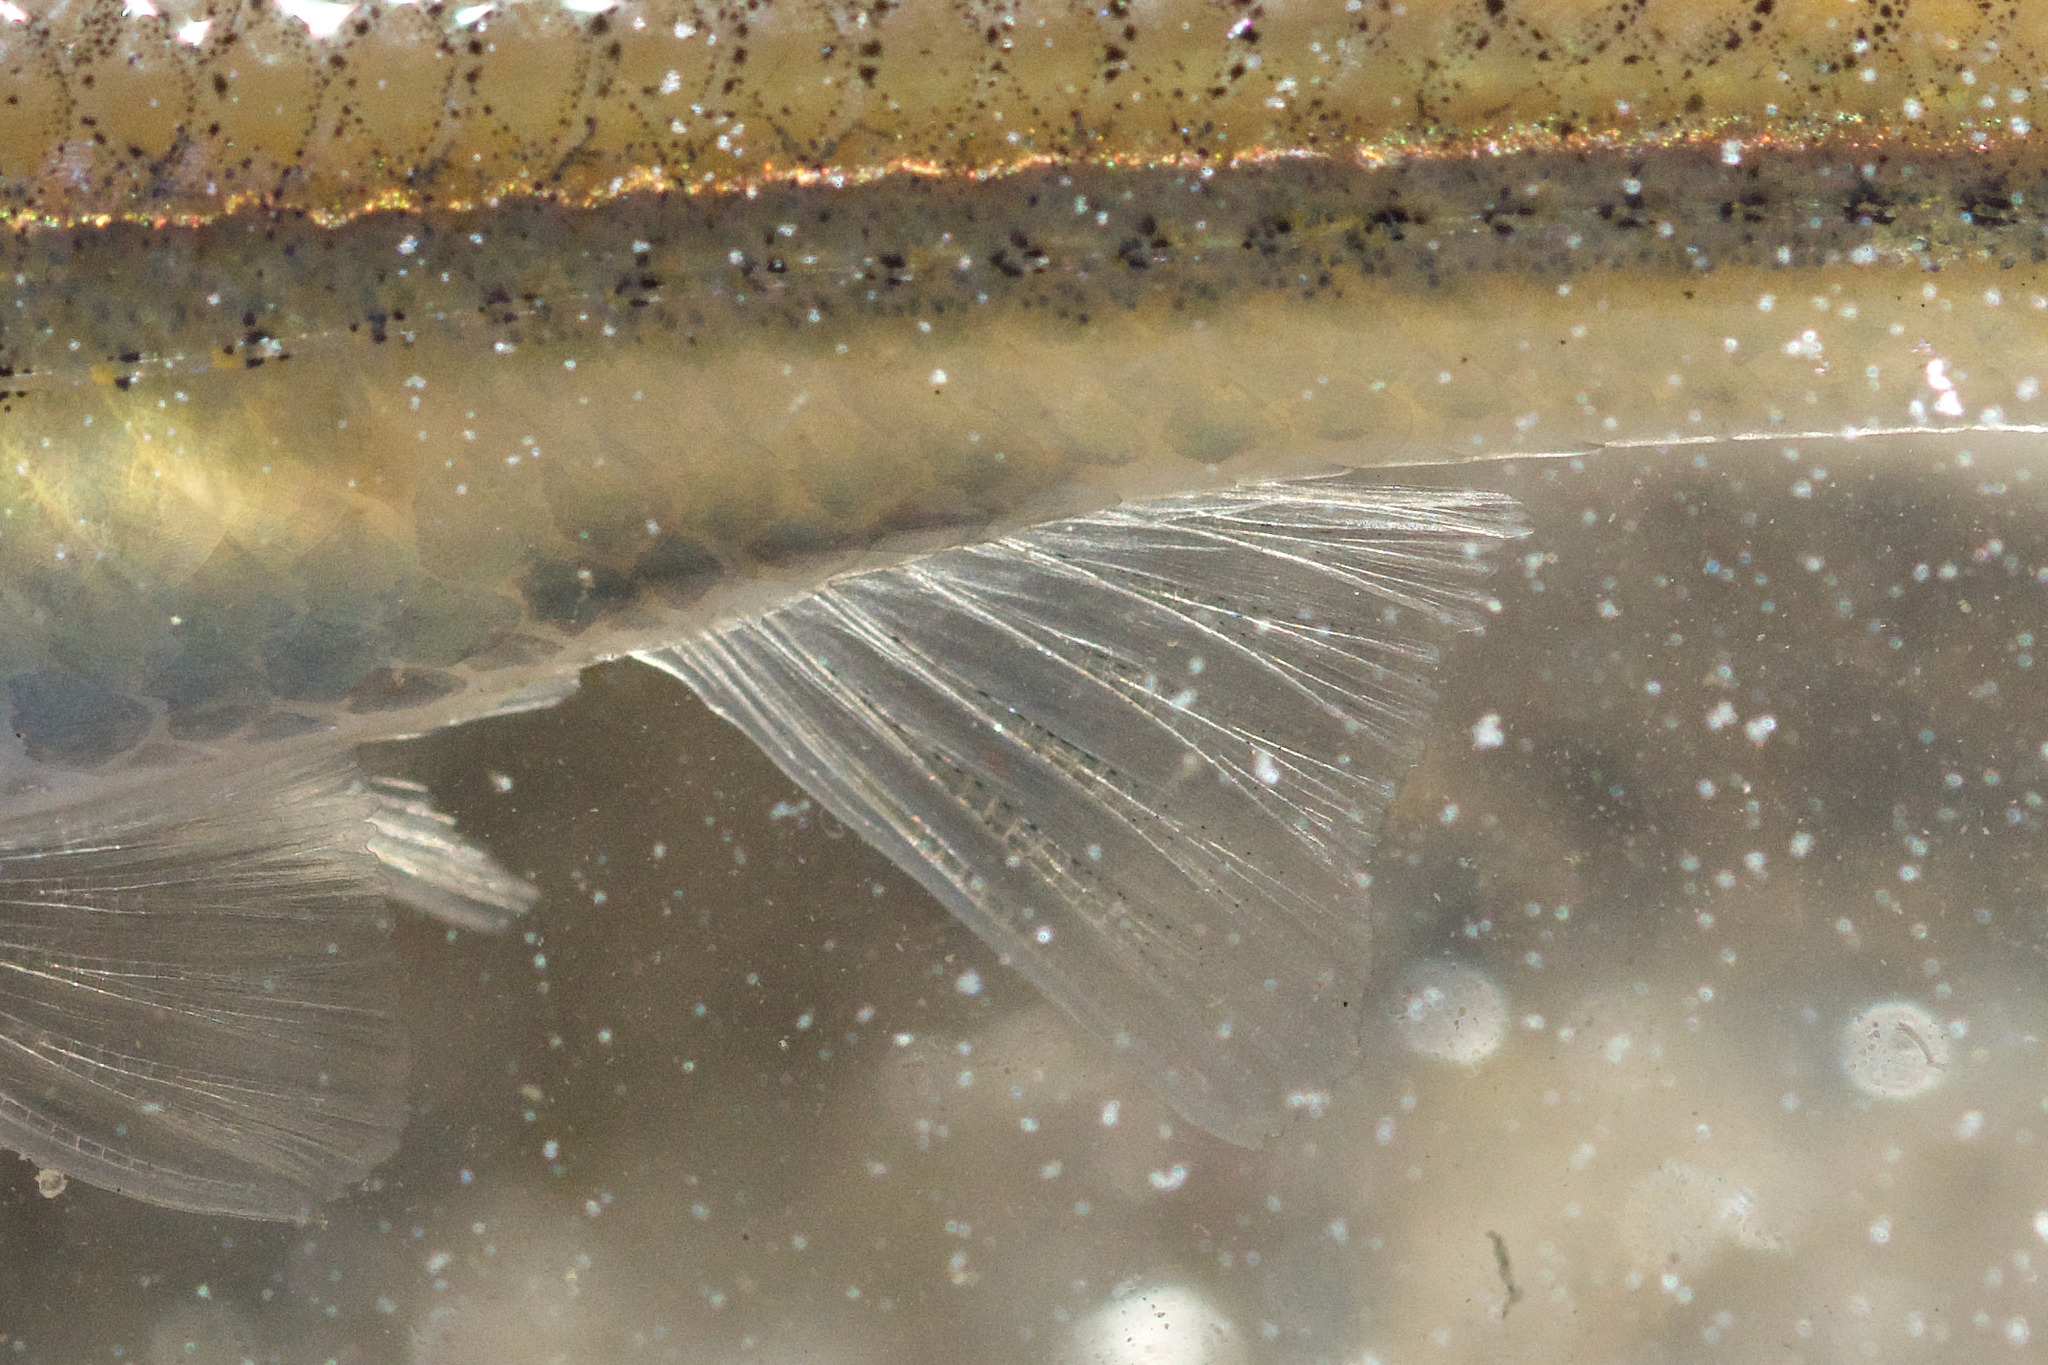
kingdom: Animalia
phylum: Chordata
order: Cypriniformes
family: Cyprinidae
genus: Notropis
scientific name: Notropis
